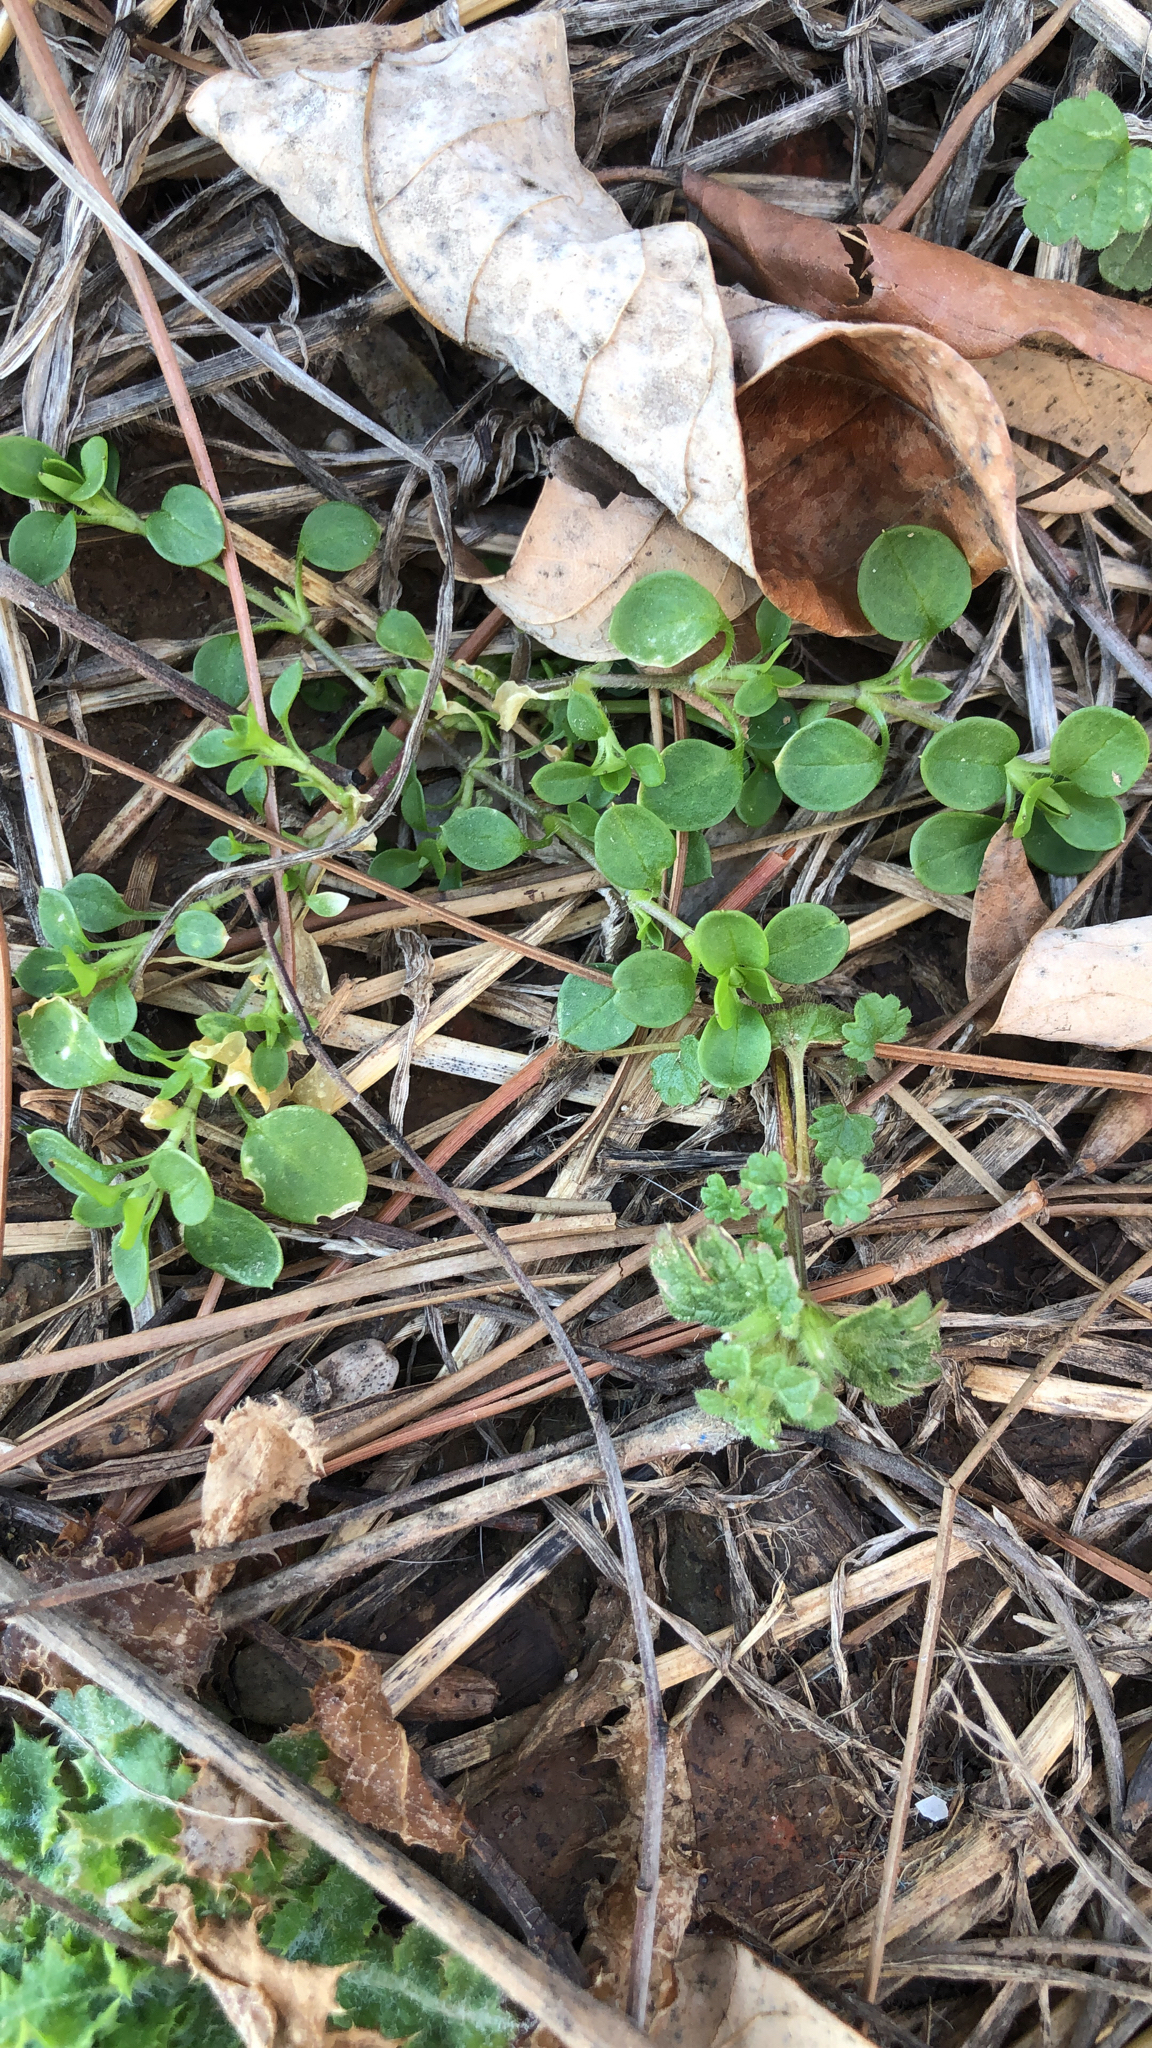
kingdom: Plantae
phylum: Tracheophyta
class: Magnoliopsida
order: Caryophyllales
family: Caryophyllaceae
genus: Stellaria
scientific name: Stellaria media
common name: Common chickweed
